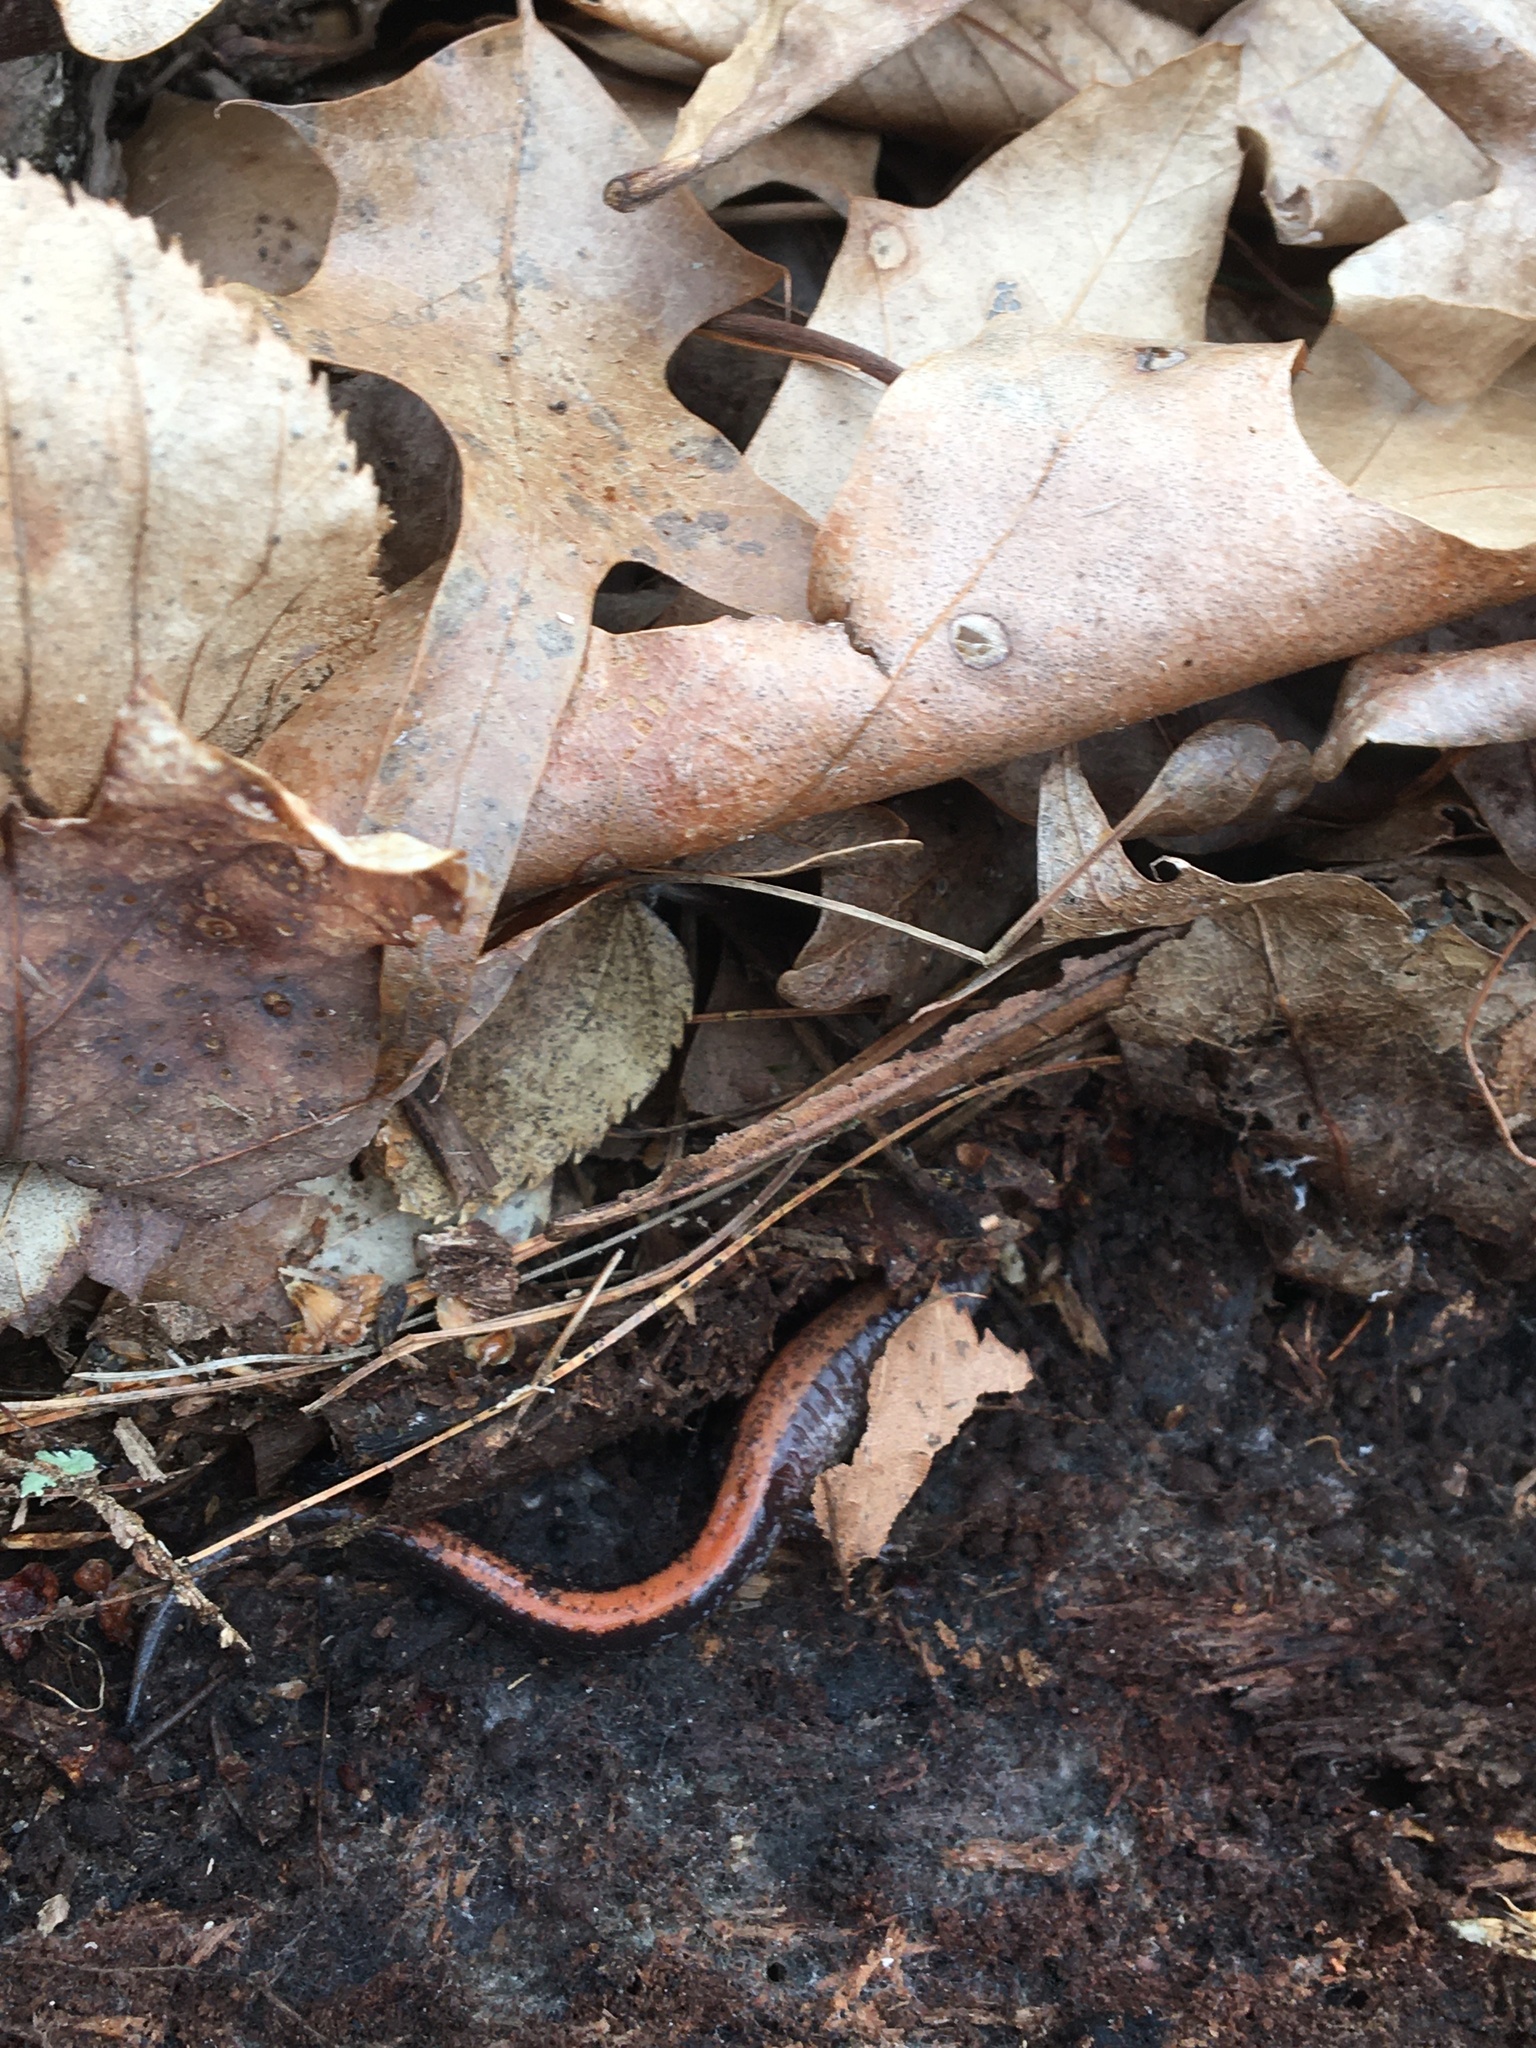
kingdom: Animalia
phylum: Chordata
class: Amphibia
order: Caudata
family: Plethodontidae
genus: Plethodon
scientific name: Plethodon cinereus
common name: Redback salamander
